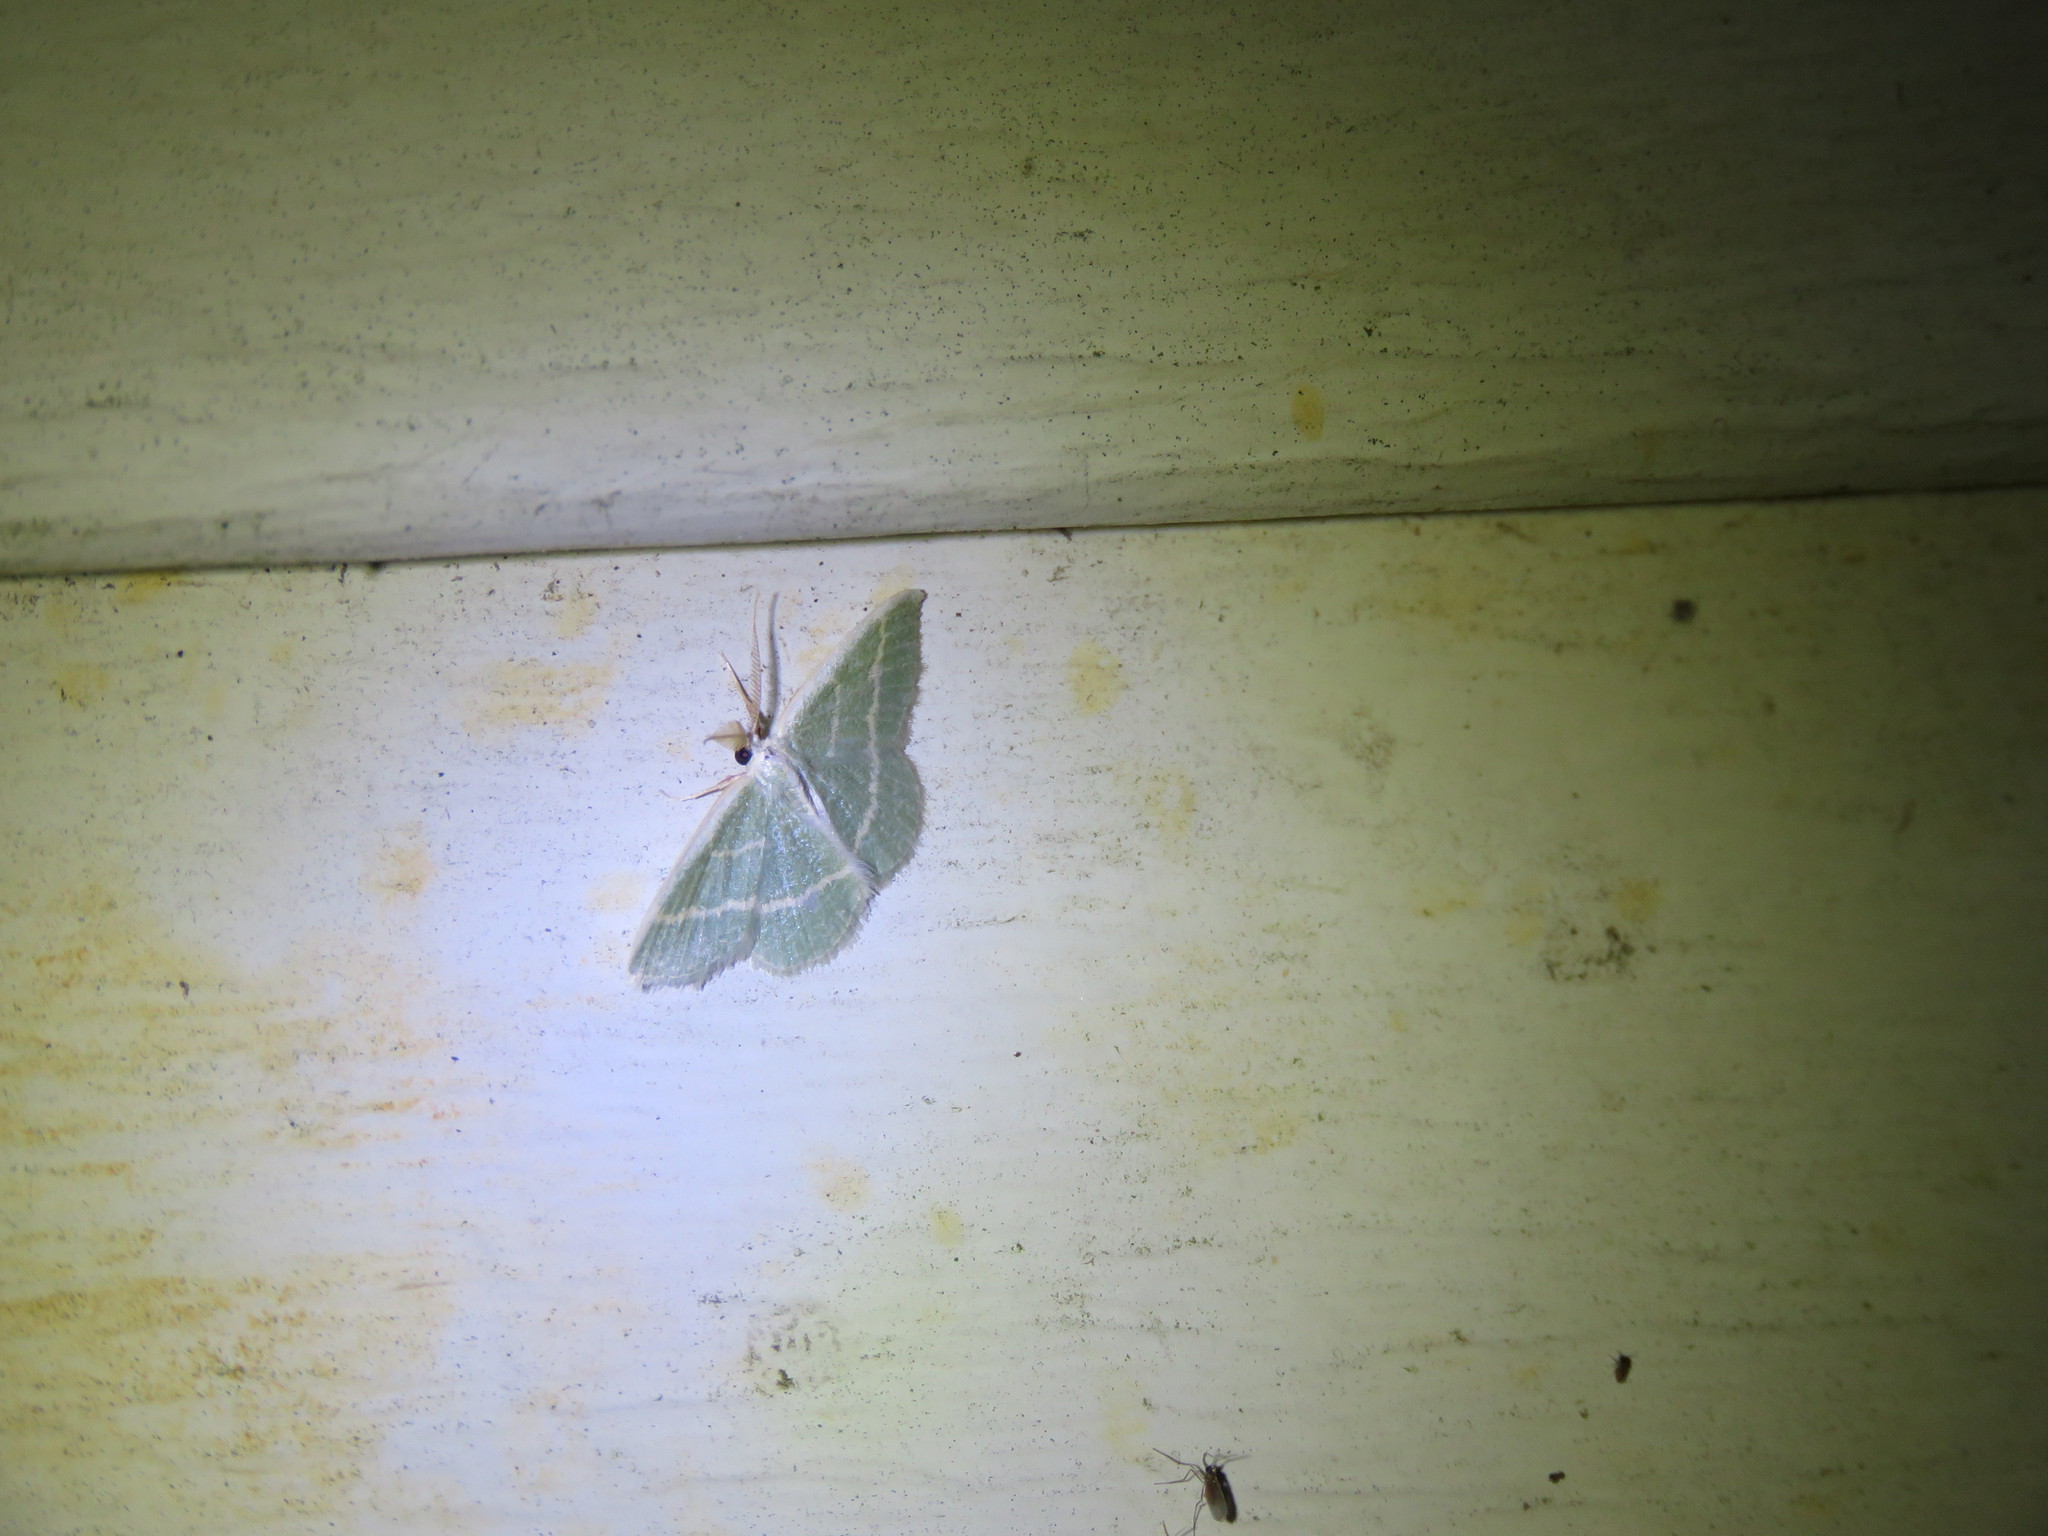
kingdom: Animalia
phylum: Arthropoda
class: Insecta
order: Lepidoptera
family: Geometridae
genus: Chlorochlamys
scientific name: Chlorochlamys chloroleucaria
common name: Blackberry looper
